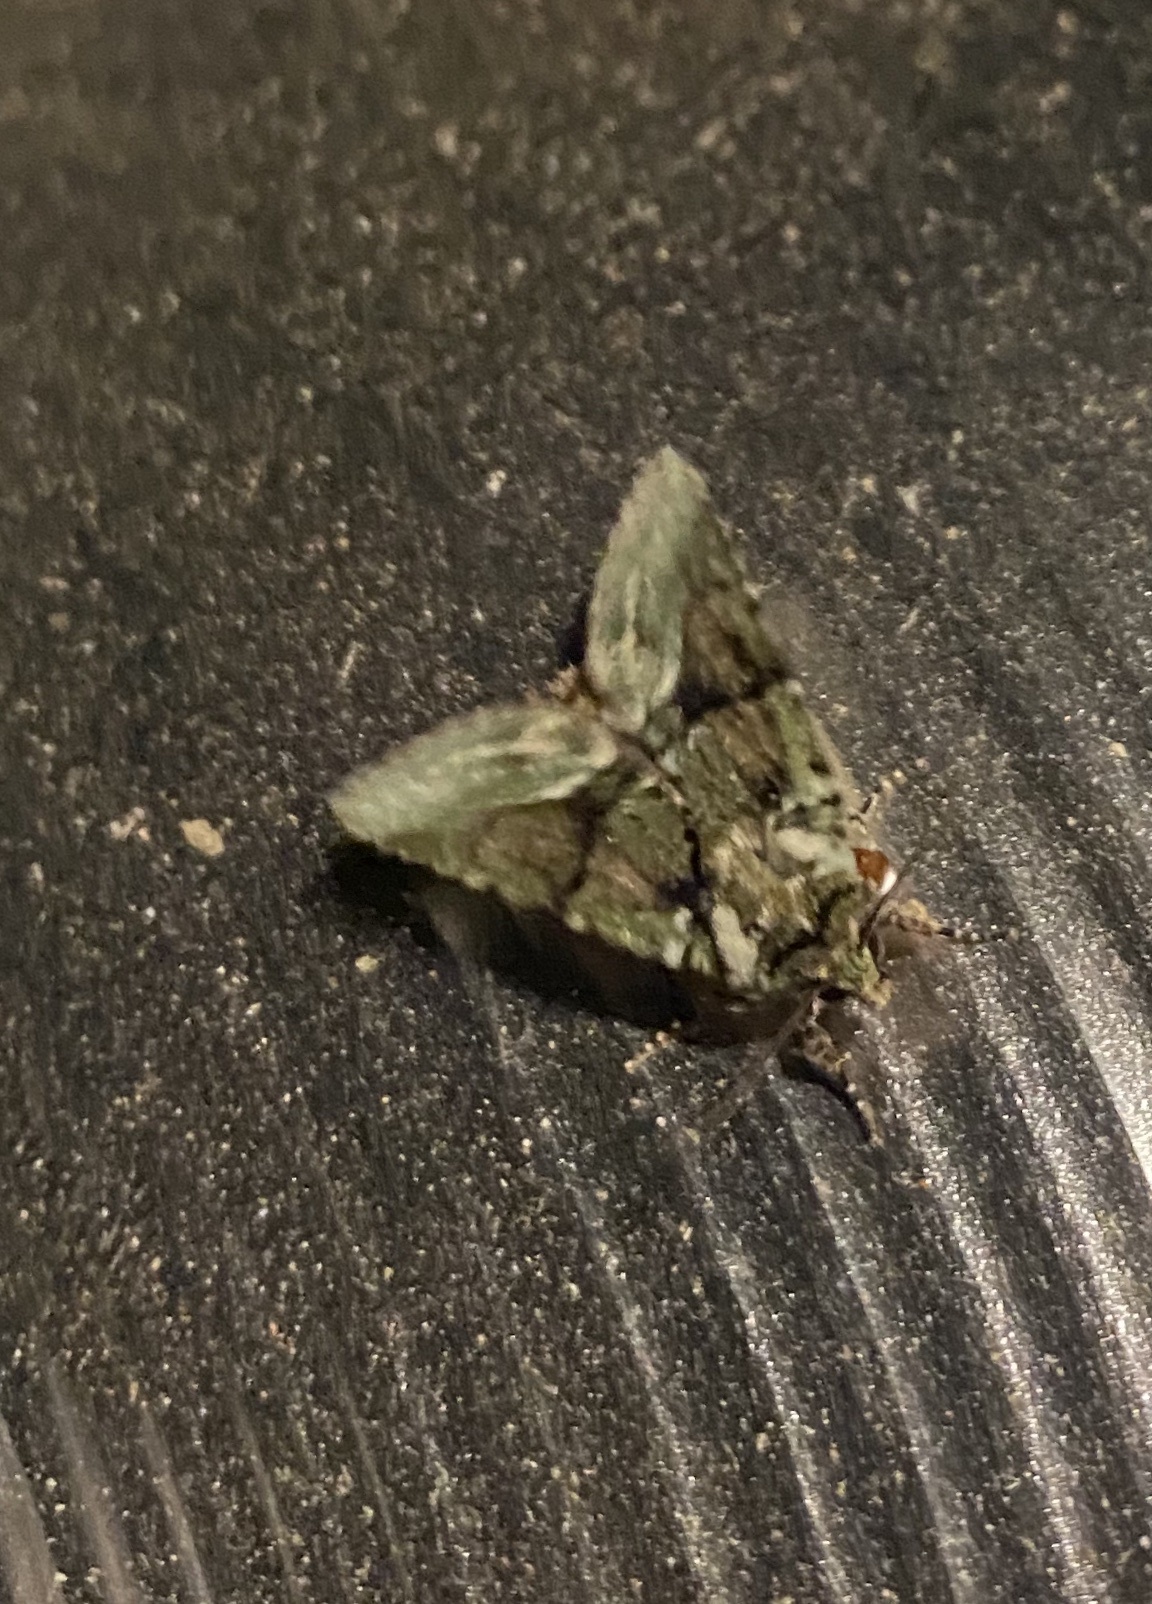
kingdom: Animalia
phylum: Arthropoda
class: Insecta
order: Lepidoptera
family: Noctuidae
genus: Lacinipolia
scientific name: Lacinipolia explicata
